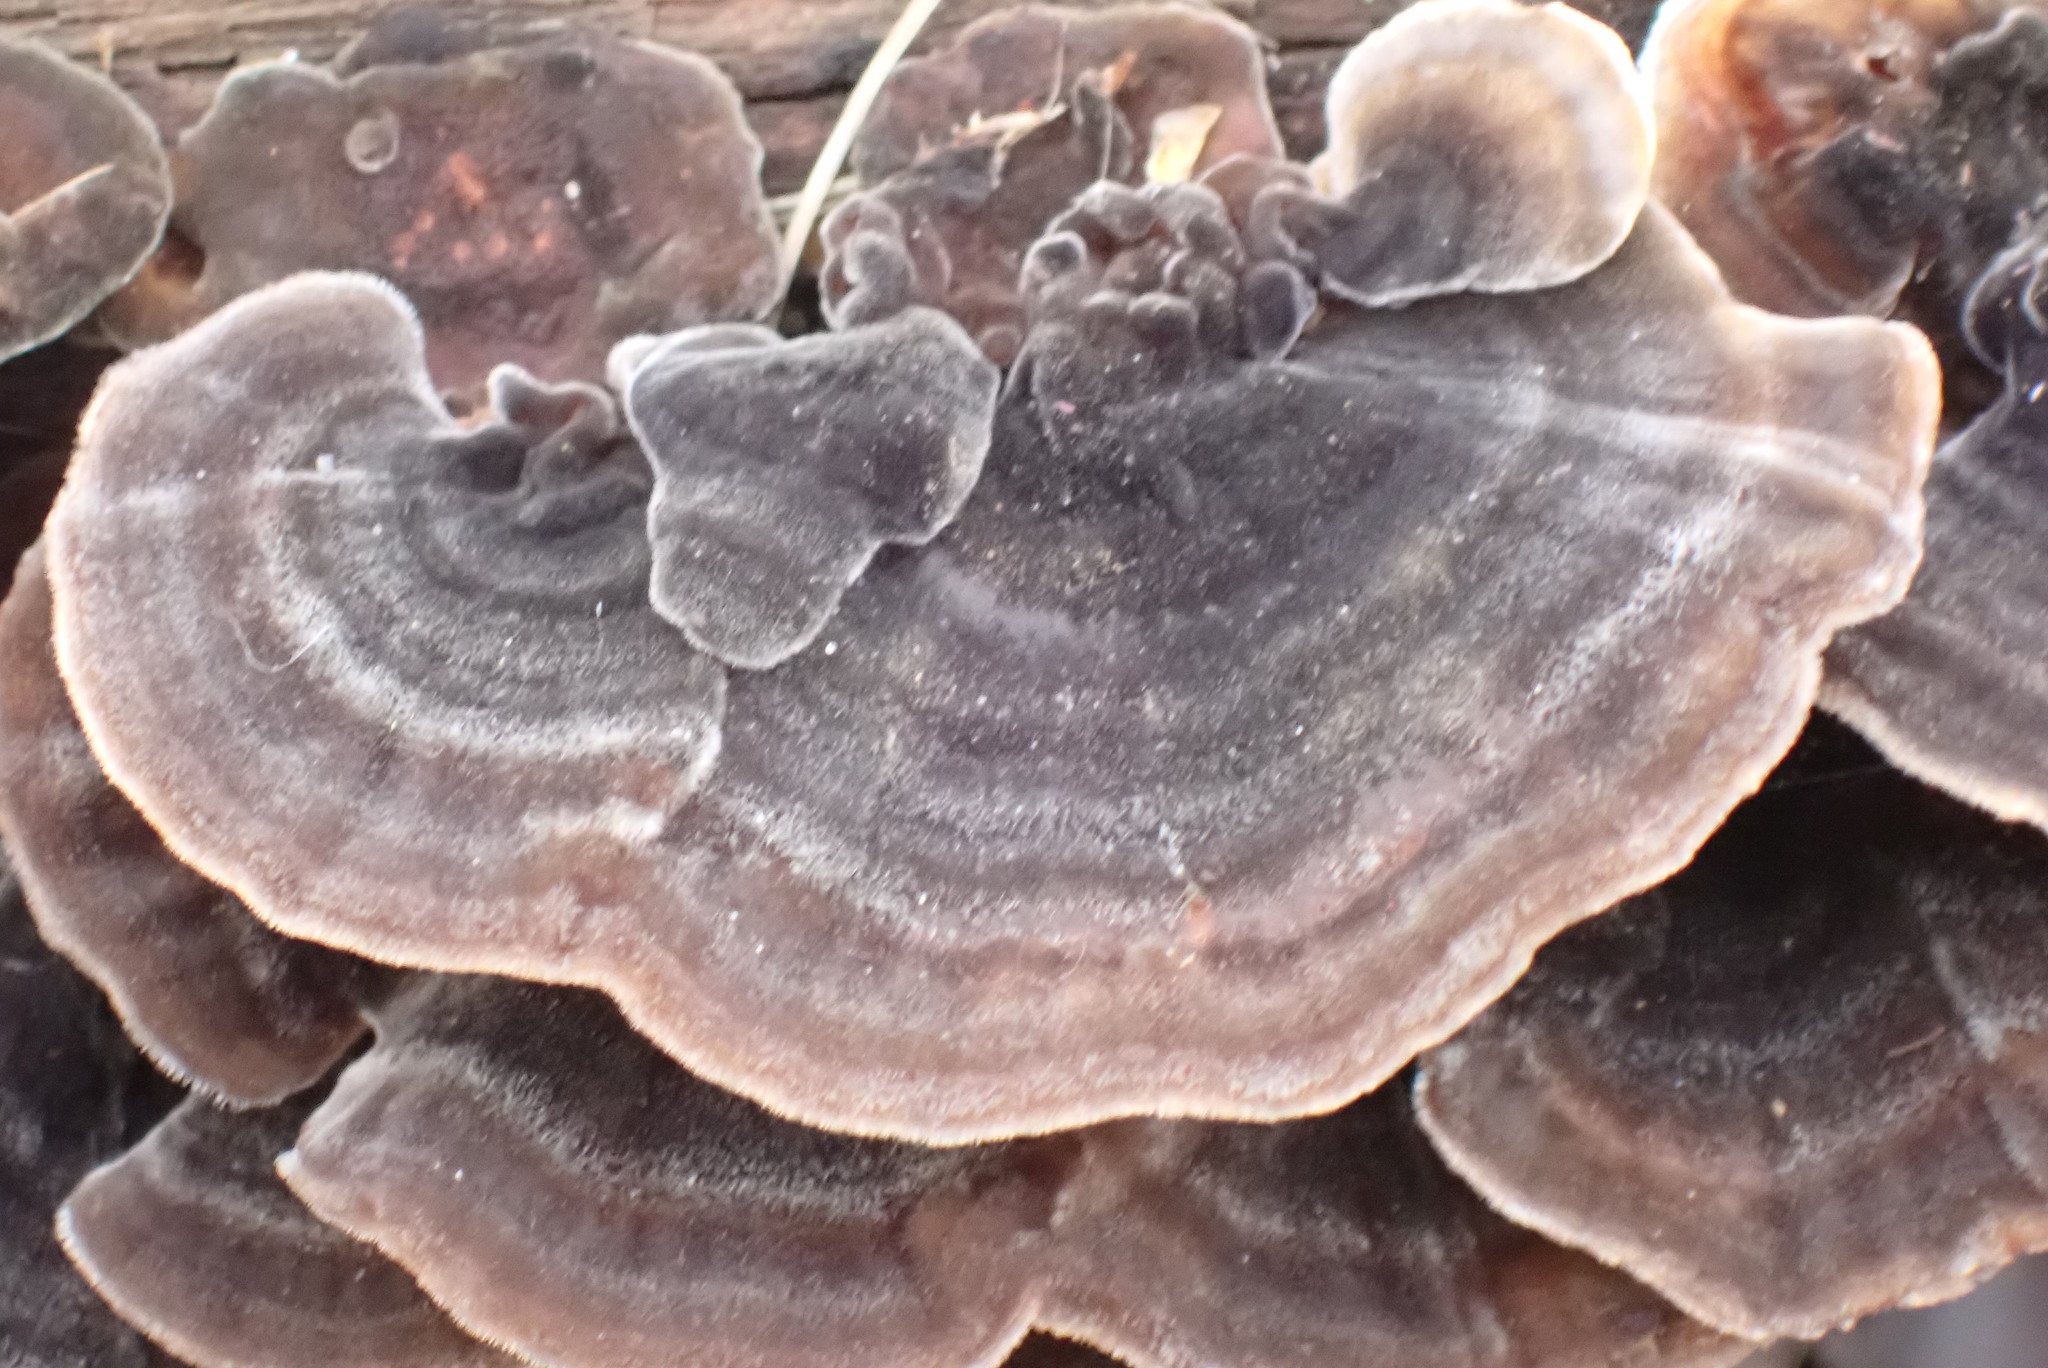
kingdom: Fungi
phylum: Basidiomycota
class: Agaricomycetes
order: Polyporales
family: Polyporaceae
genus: Trametes
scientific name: Trametes versicolor
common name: Turkeytail
